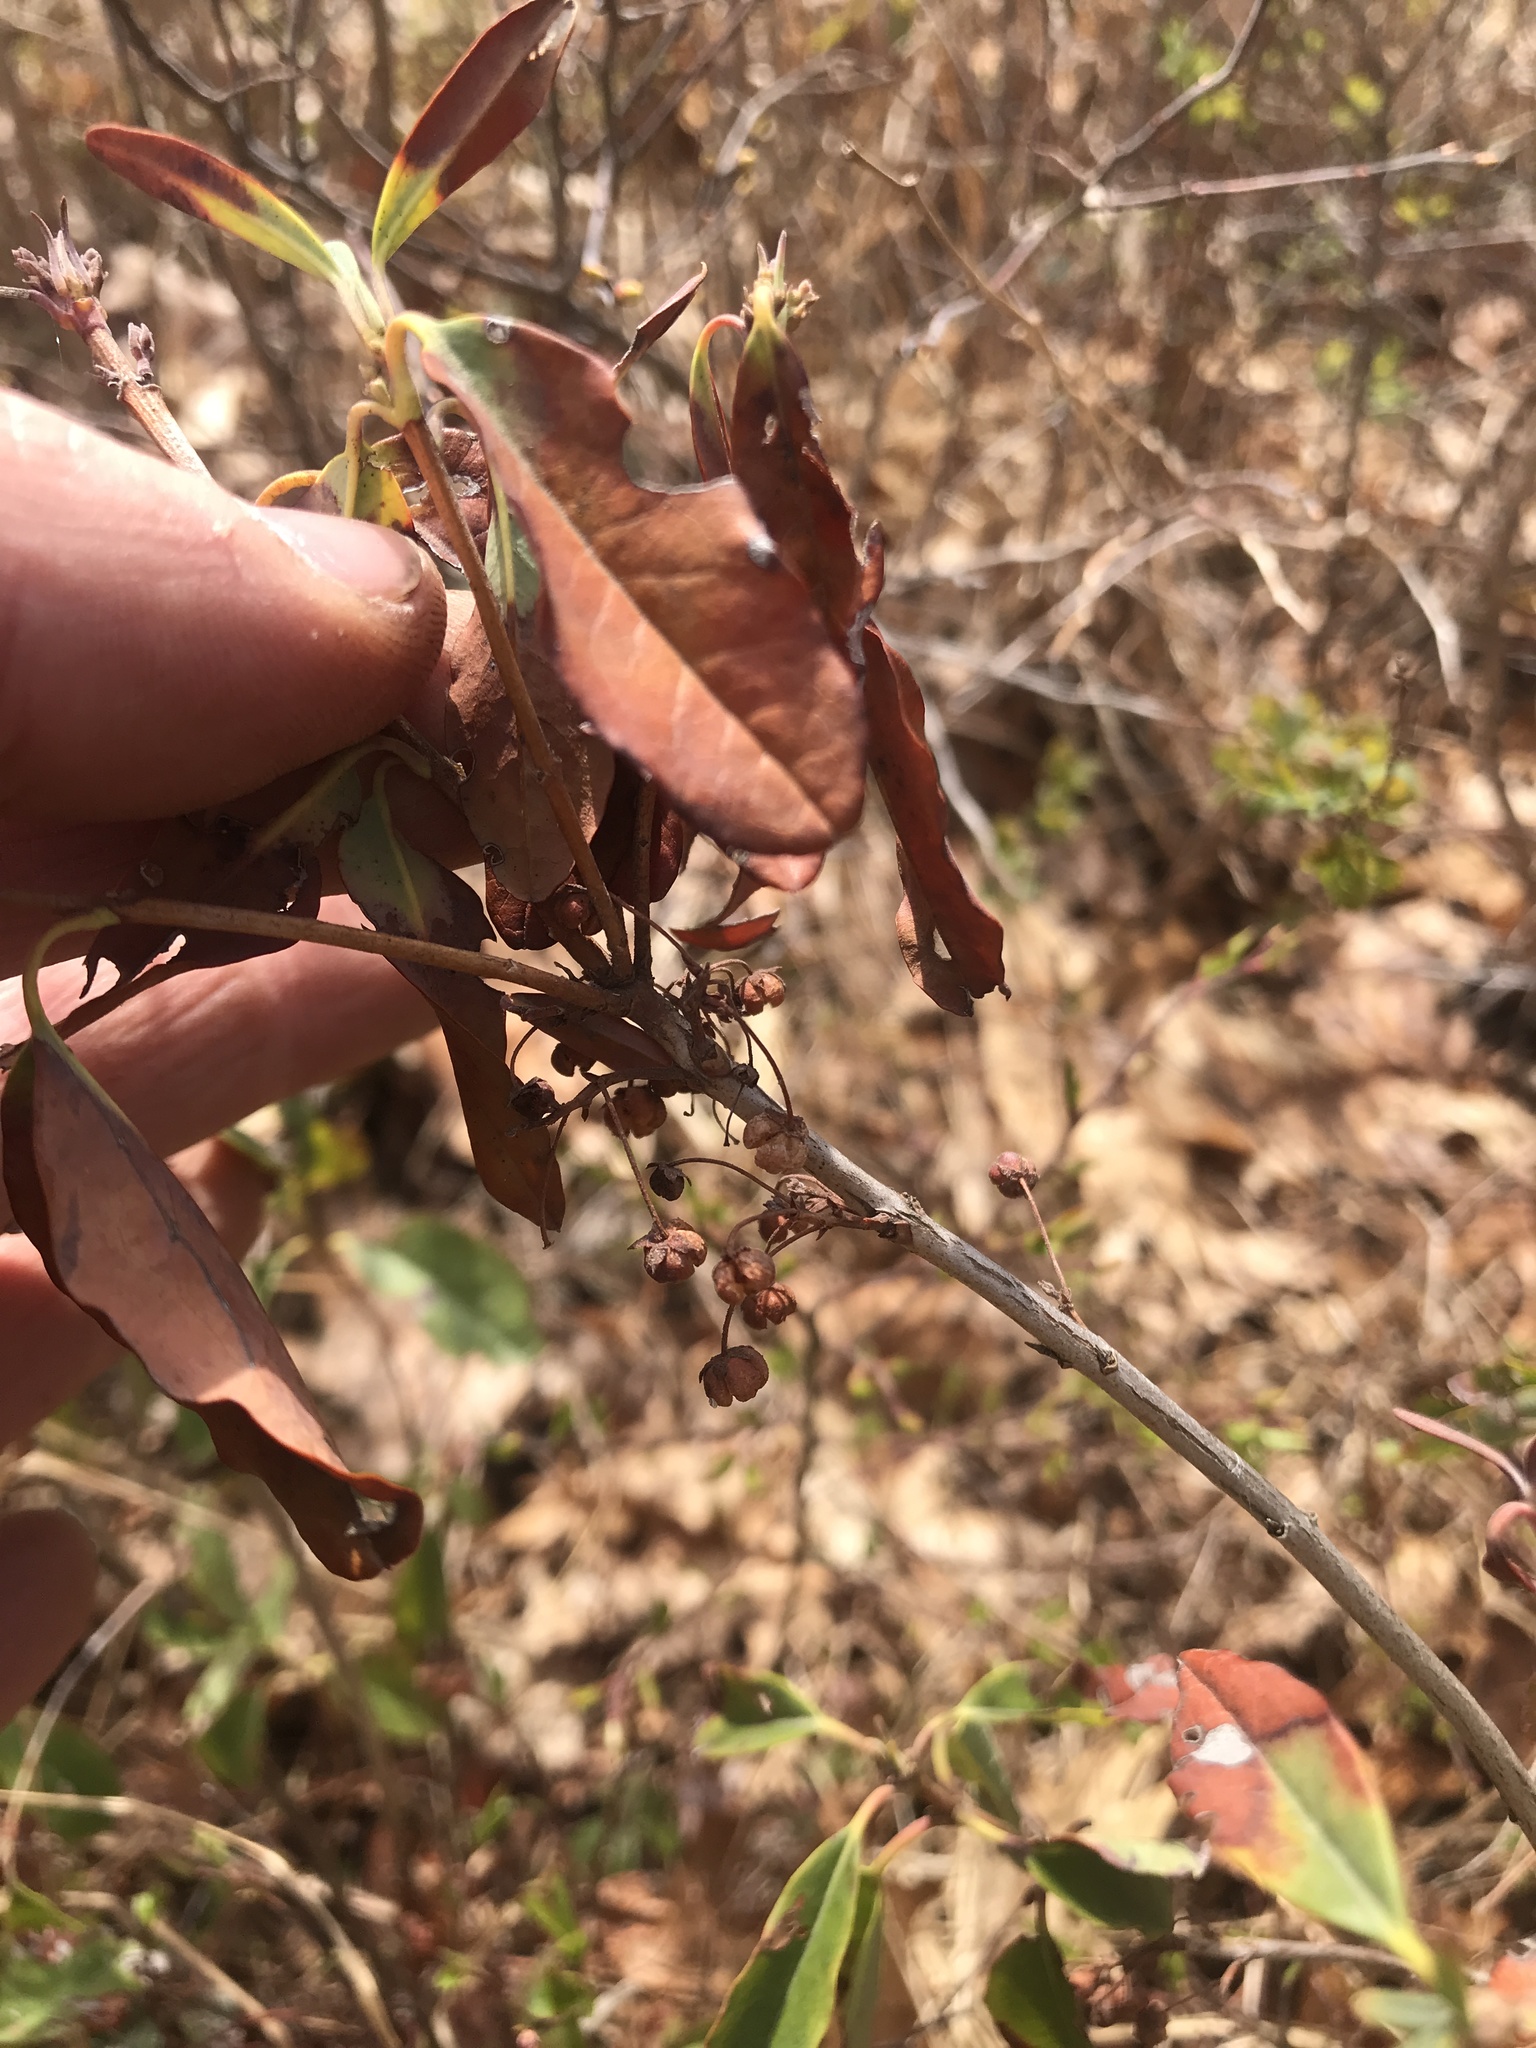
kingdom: Plantae
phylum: Tracheophyta
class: Magnoliopsida
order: Ericales
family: Ericaceae
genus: Kalmia
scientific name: Kalmia angustifolia
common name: Sheep-laurel
